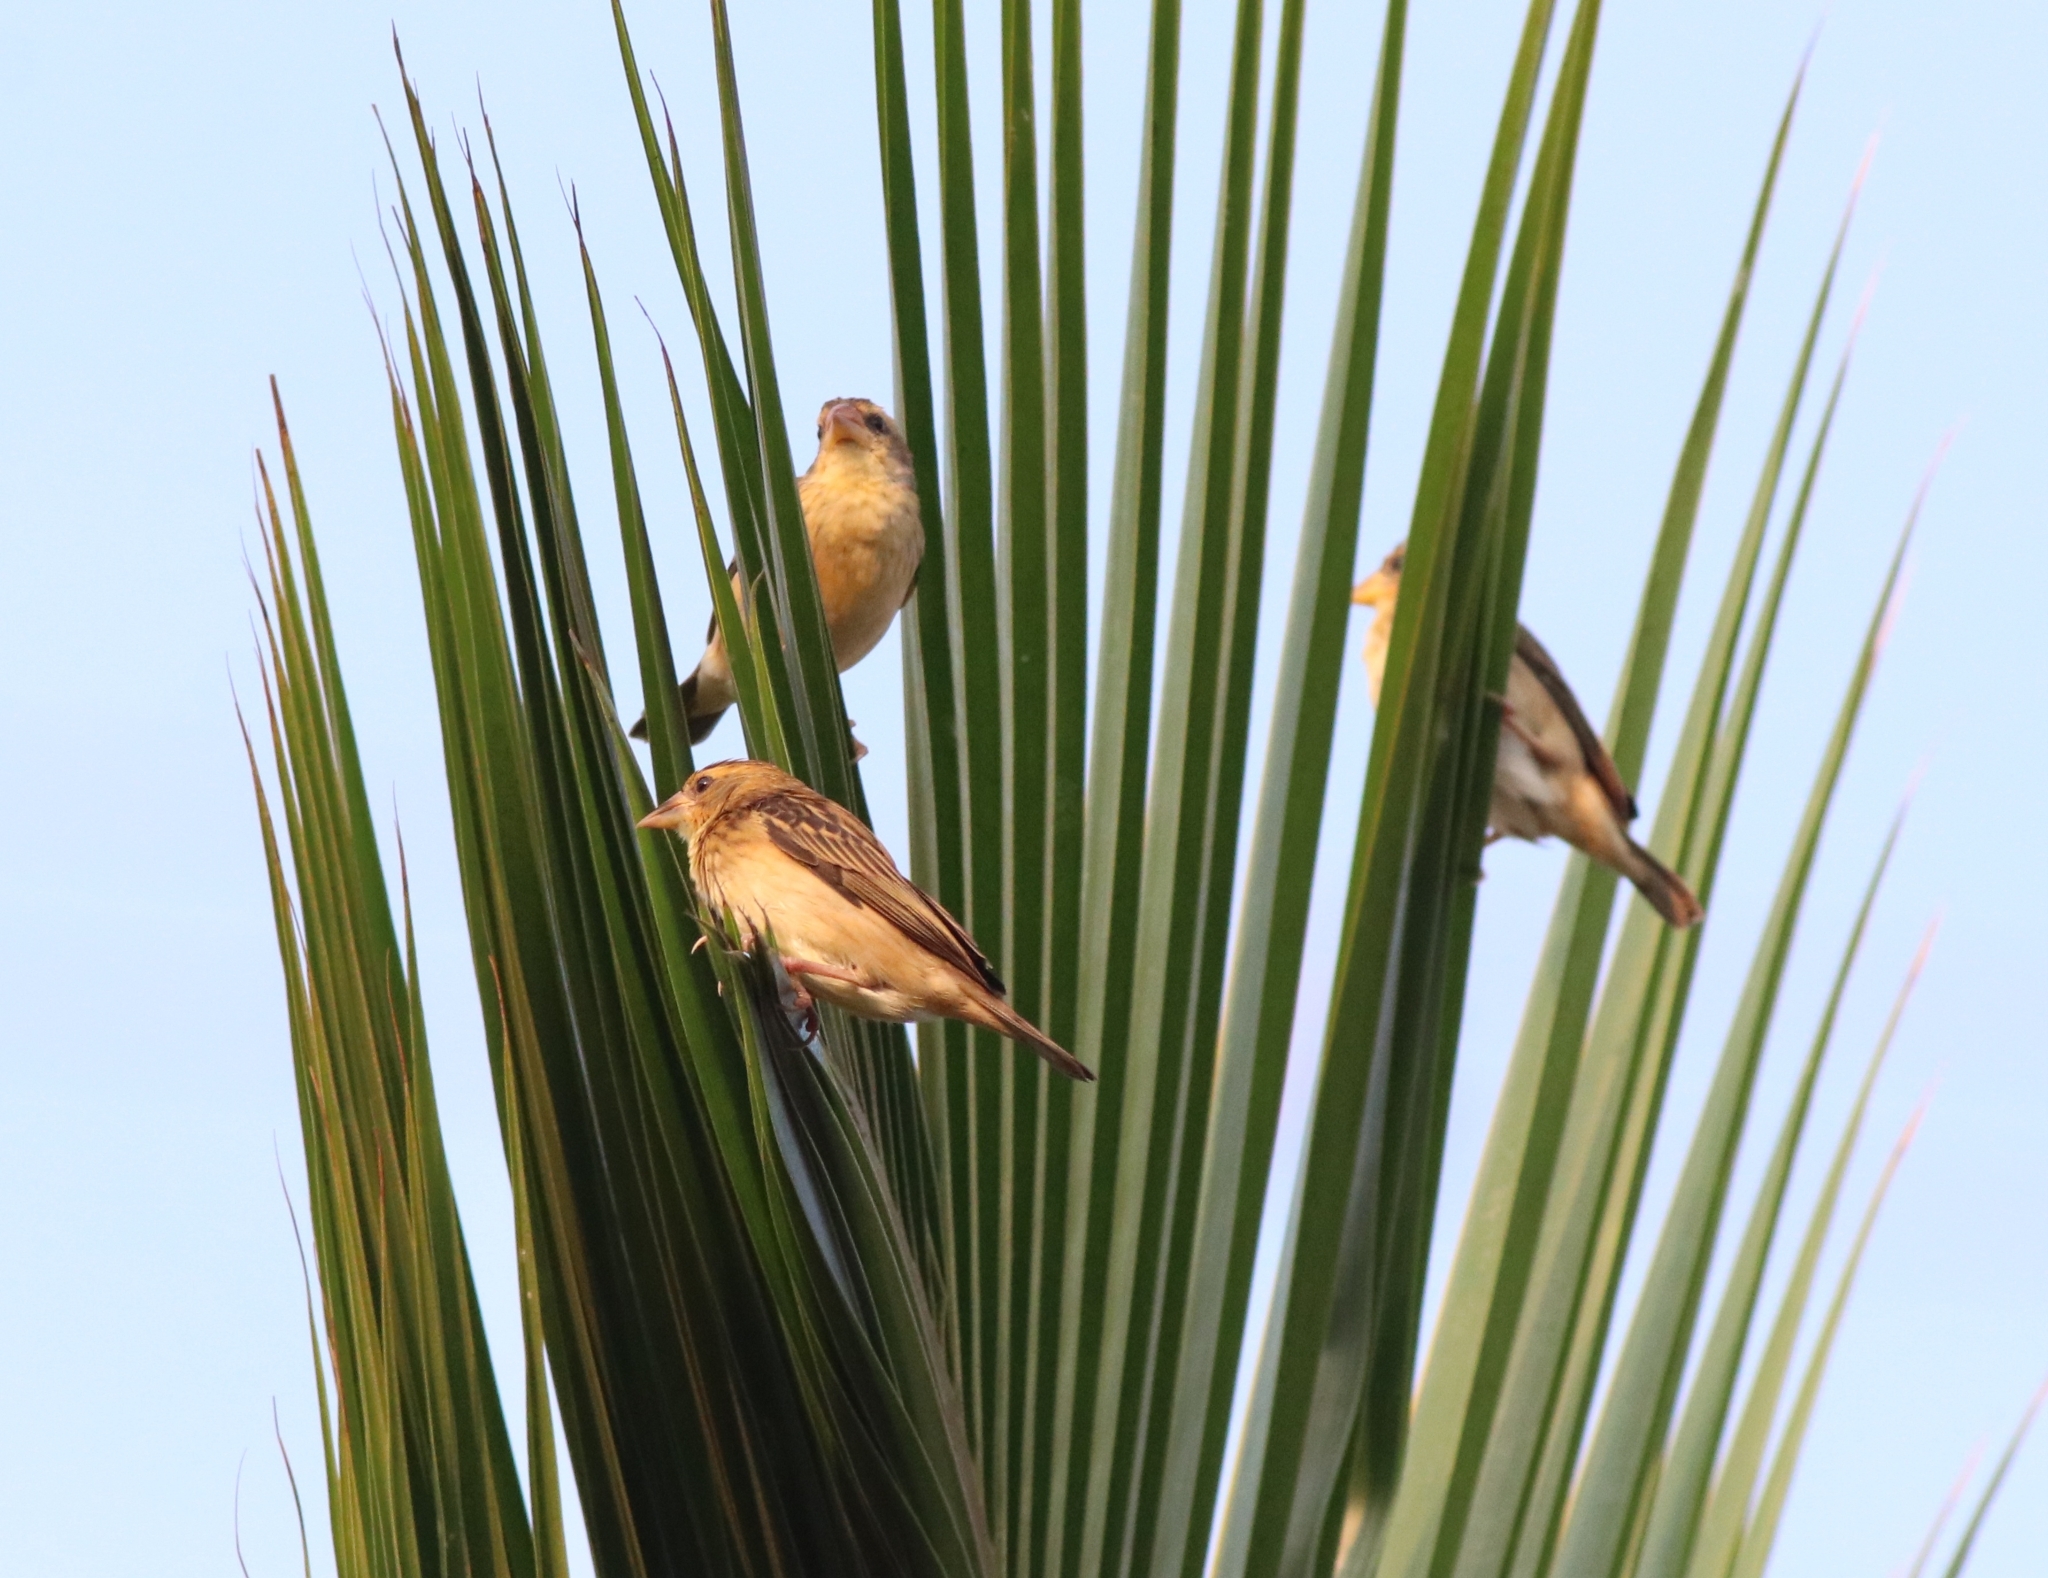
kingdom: Animalia
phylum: Chordata
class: Aves
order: Passeriformes
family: Ploceidae
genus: Ploceus
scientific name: Ploceus philippinus
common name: Baya weaver
